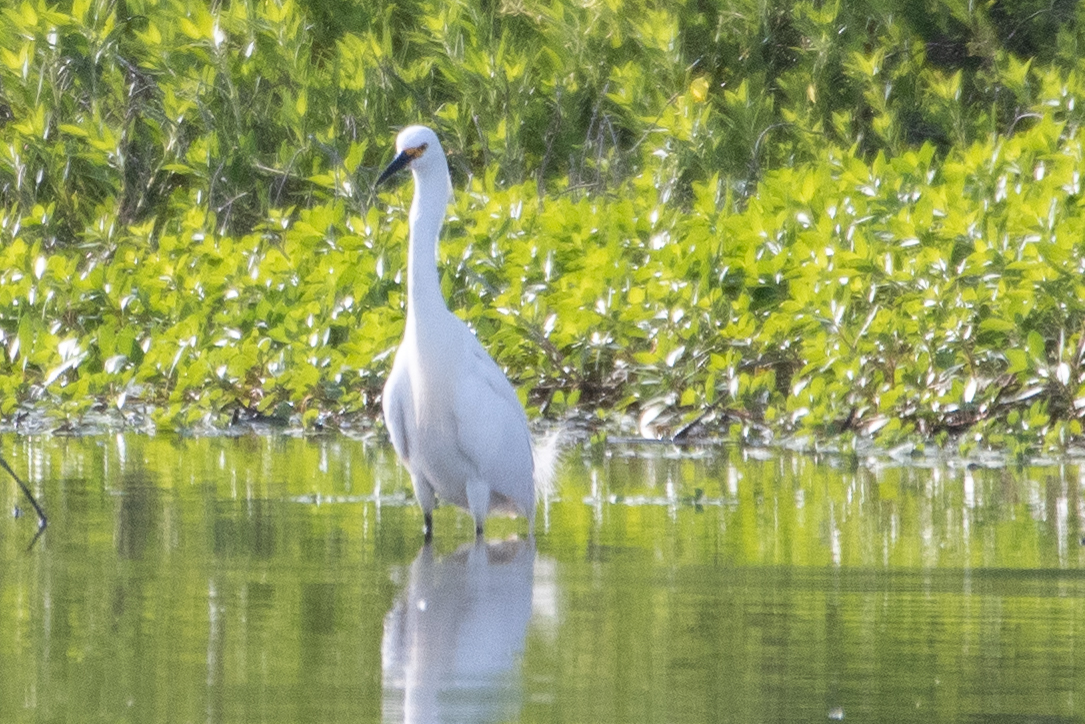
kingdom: Animalia
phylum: Chordata
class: Aves
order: Pelecaniformes
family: Ardeidae
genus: Egretta
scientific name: Egretta thula
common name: Snowy egret
